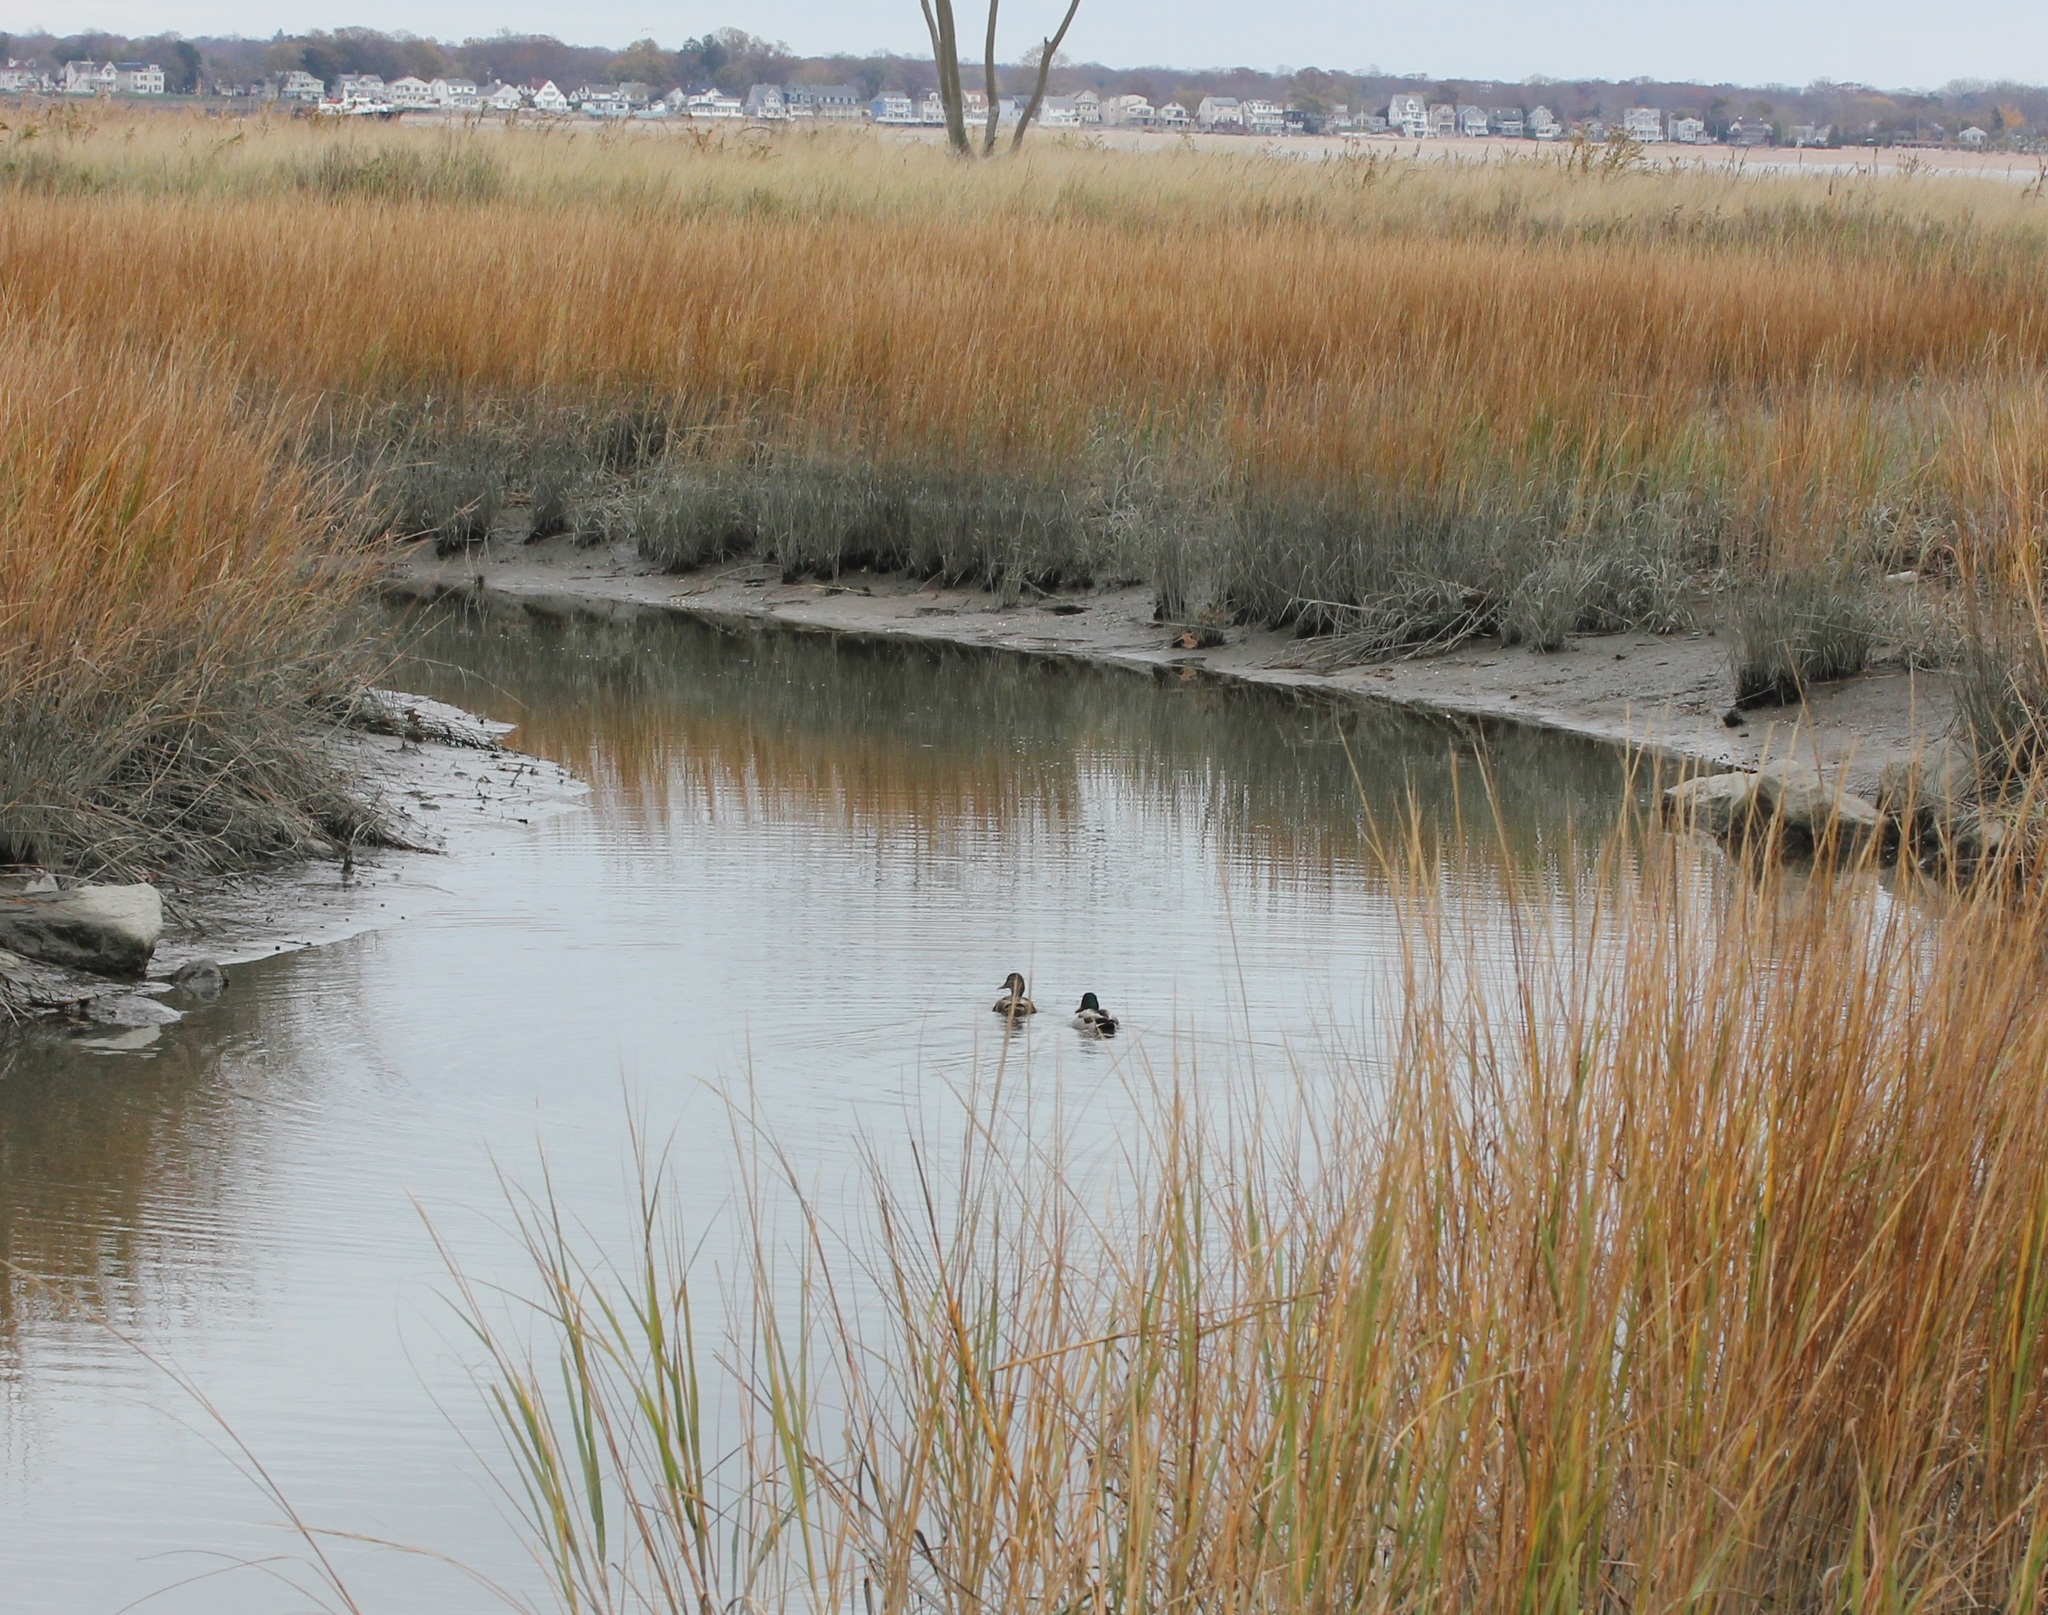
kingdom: Animalia
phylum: Chordata
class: Aves
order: Anseriformes
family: Anatidae
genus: Anas
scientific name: Anas platyrhynchos
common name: Mallard
